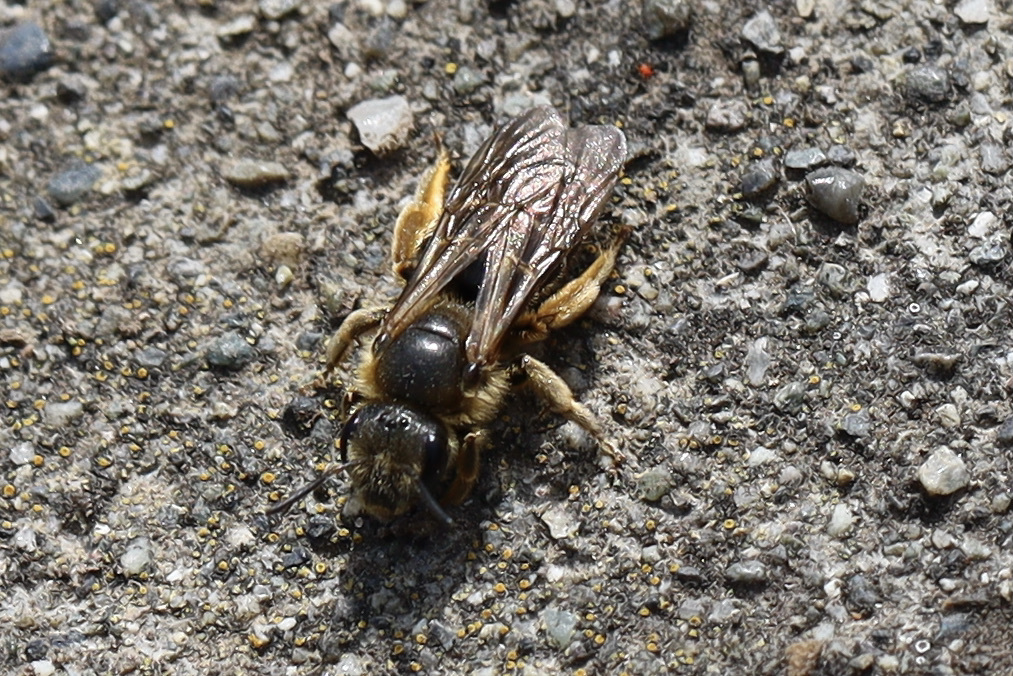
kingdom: Animalia
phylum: Arthropoda
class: Insecta
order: Hymenoptera
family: Halictidae
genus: Halictus
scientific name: Halictus rubicundus
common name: Orange-legged furrow bee
